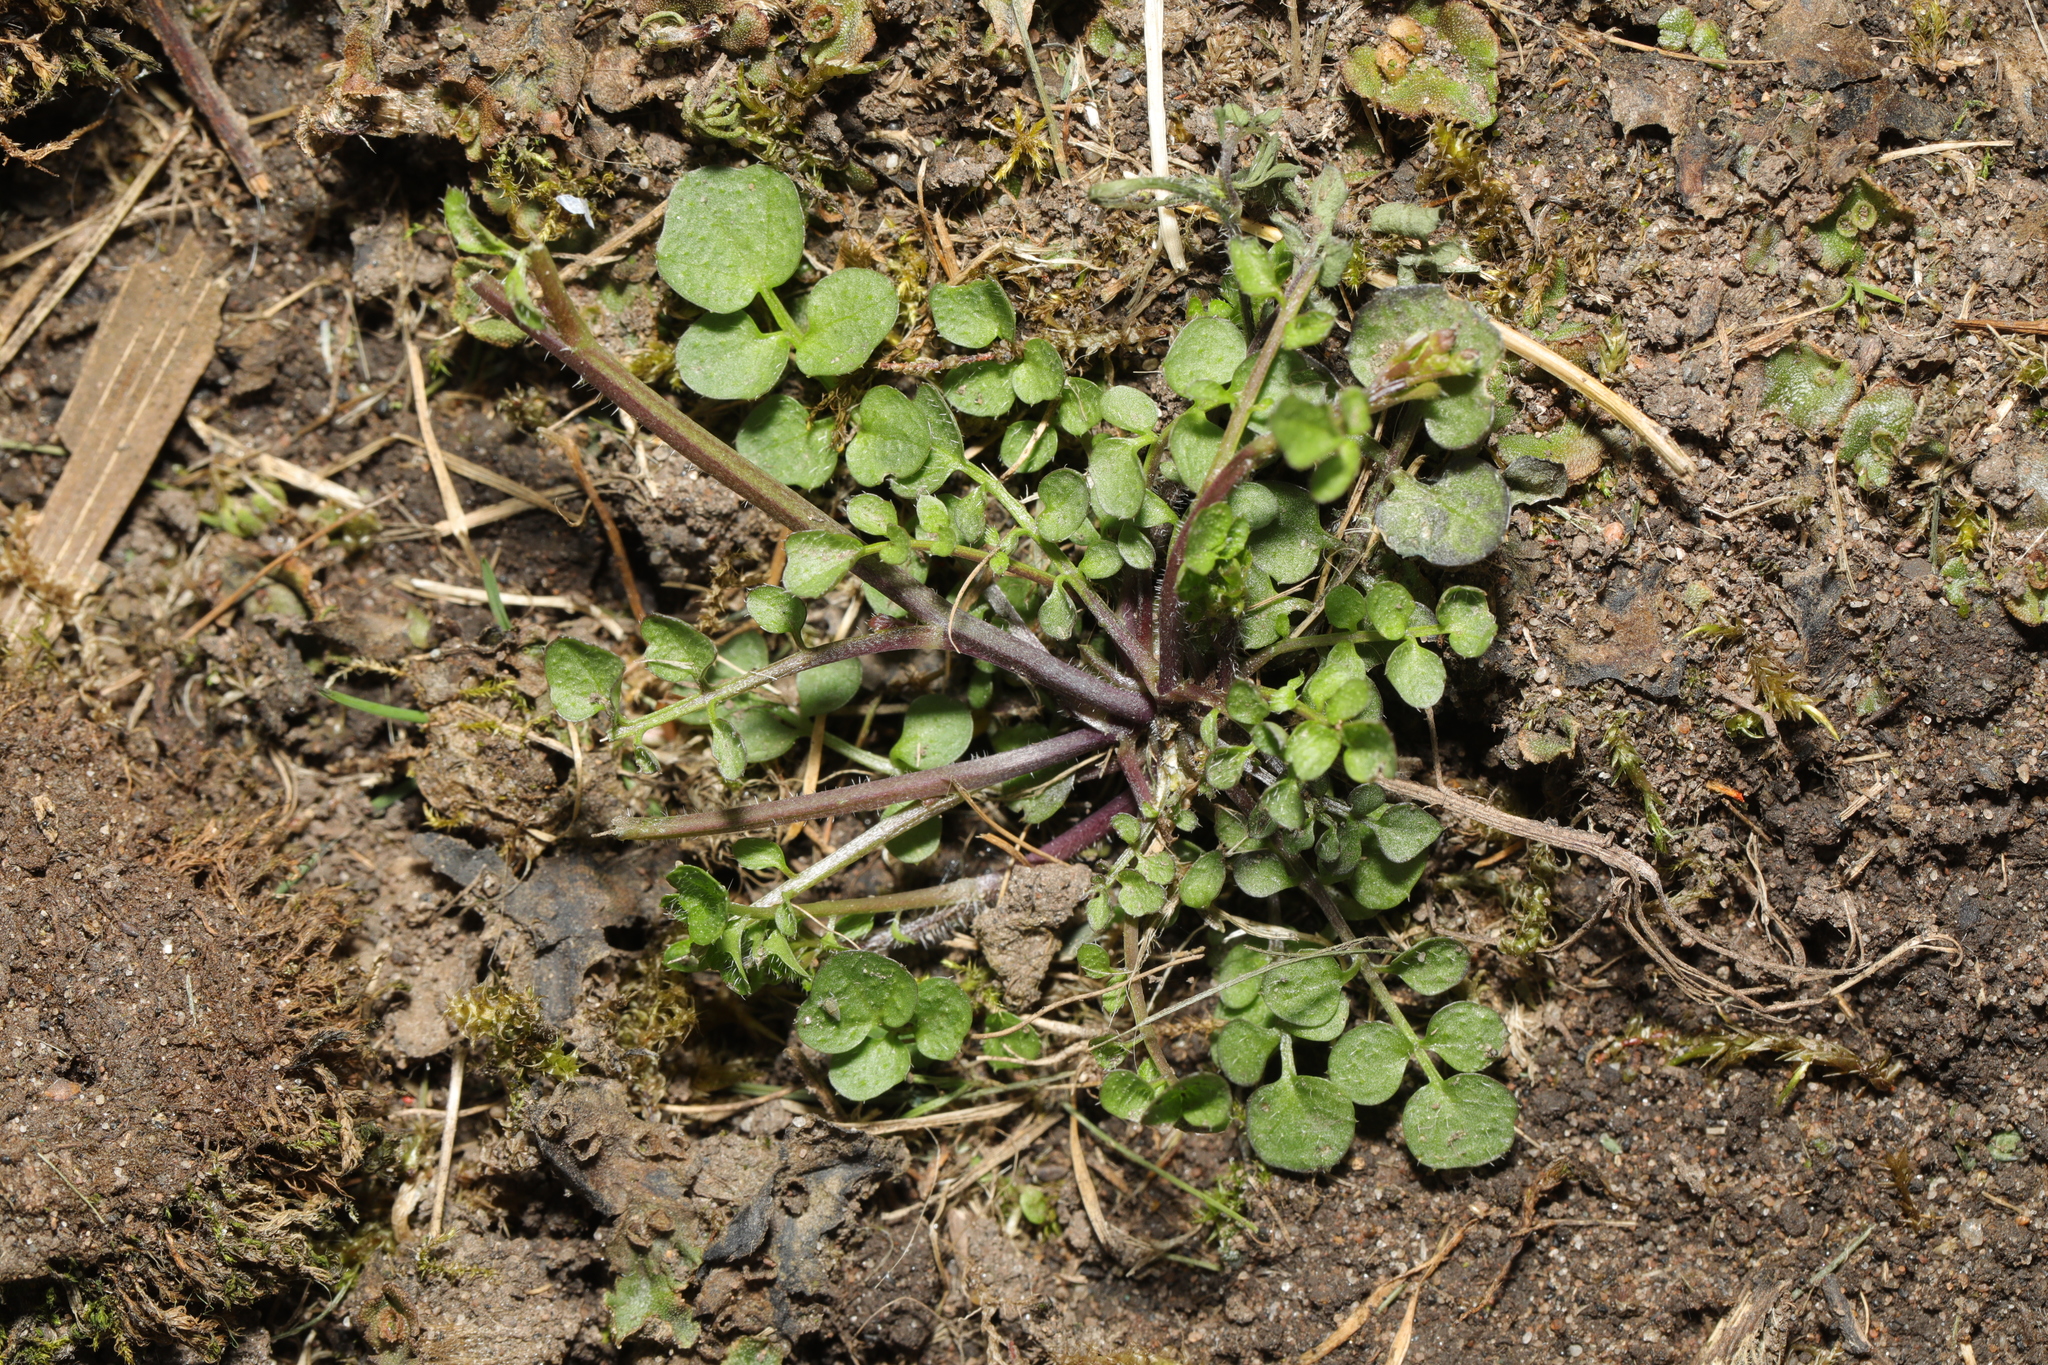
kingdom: Plantae
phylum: Tracheophyta
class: Magnoliopsida
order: Brassicales
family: Brassicaceae
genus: Cardamine
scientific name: Cardamine hirsuta
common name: Hairy bittercress
